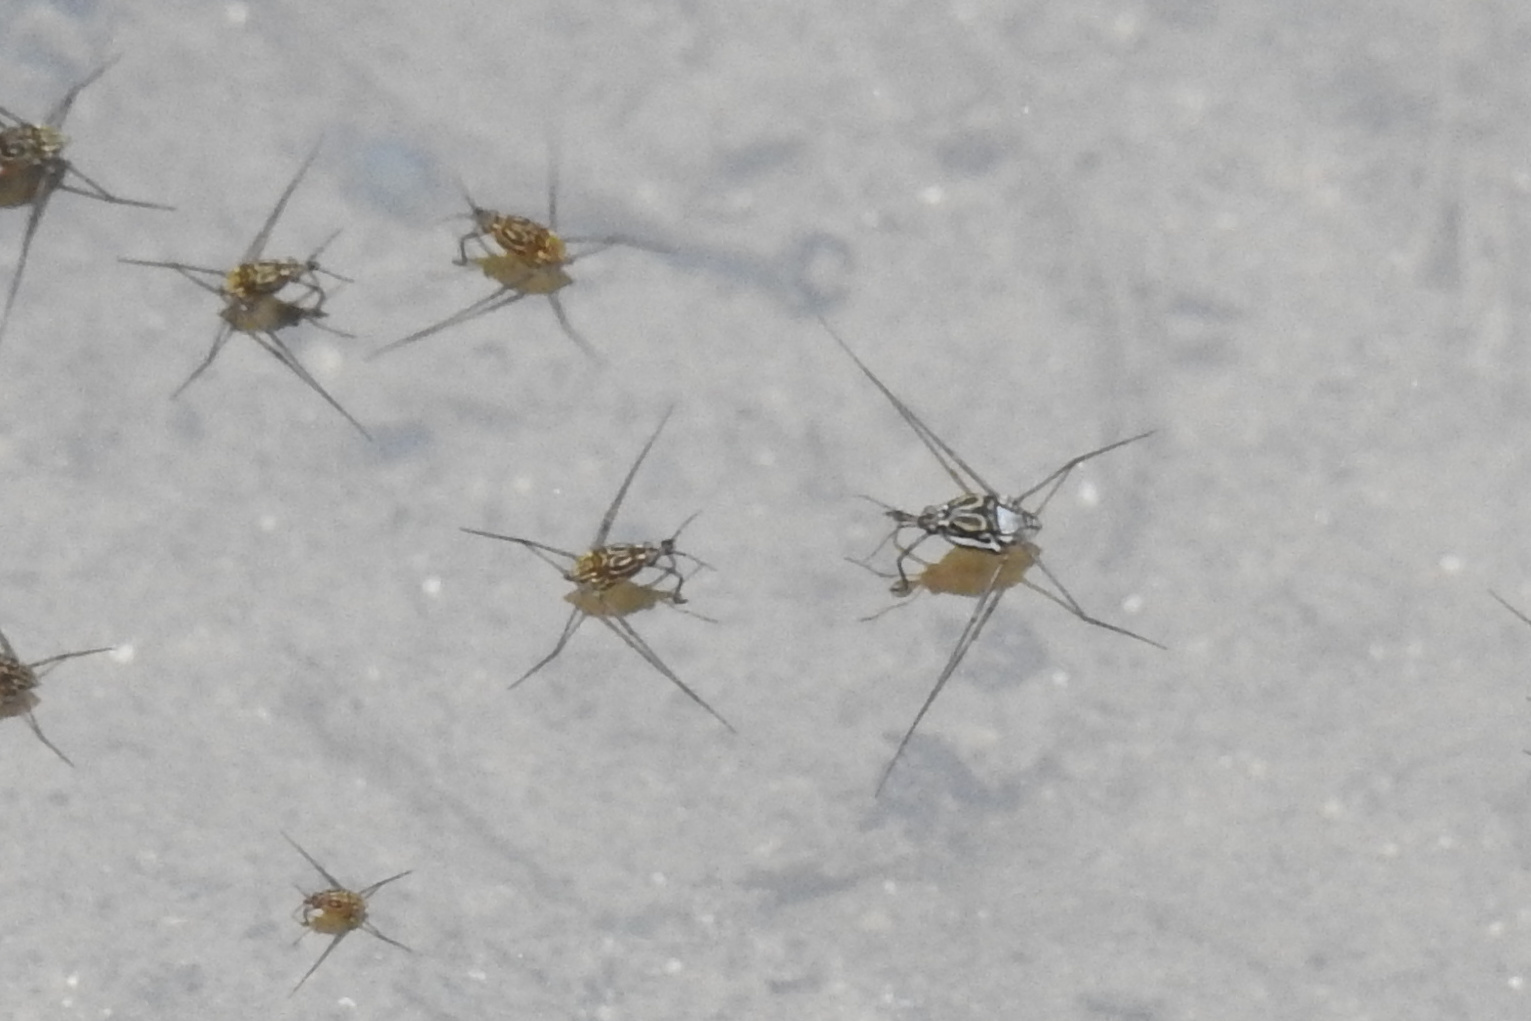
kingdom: Animalia
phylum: Arthropoda
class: Insecta
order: Hemiptera
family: Gerridae
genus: Trepobates
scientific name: Trepobates inermis
